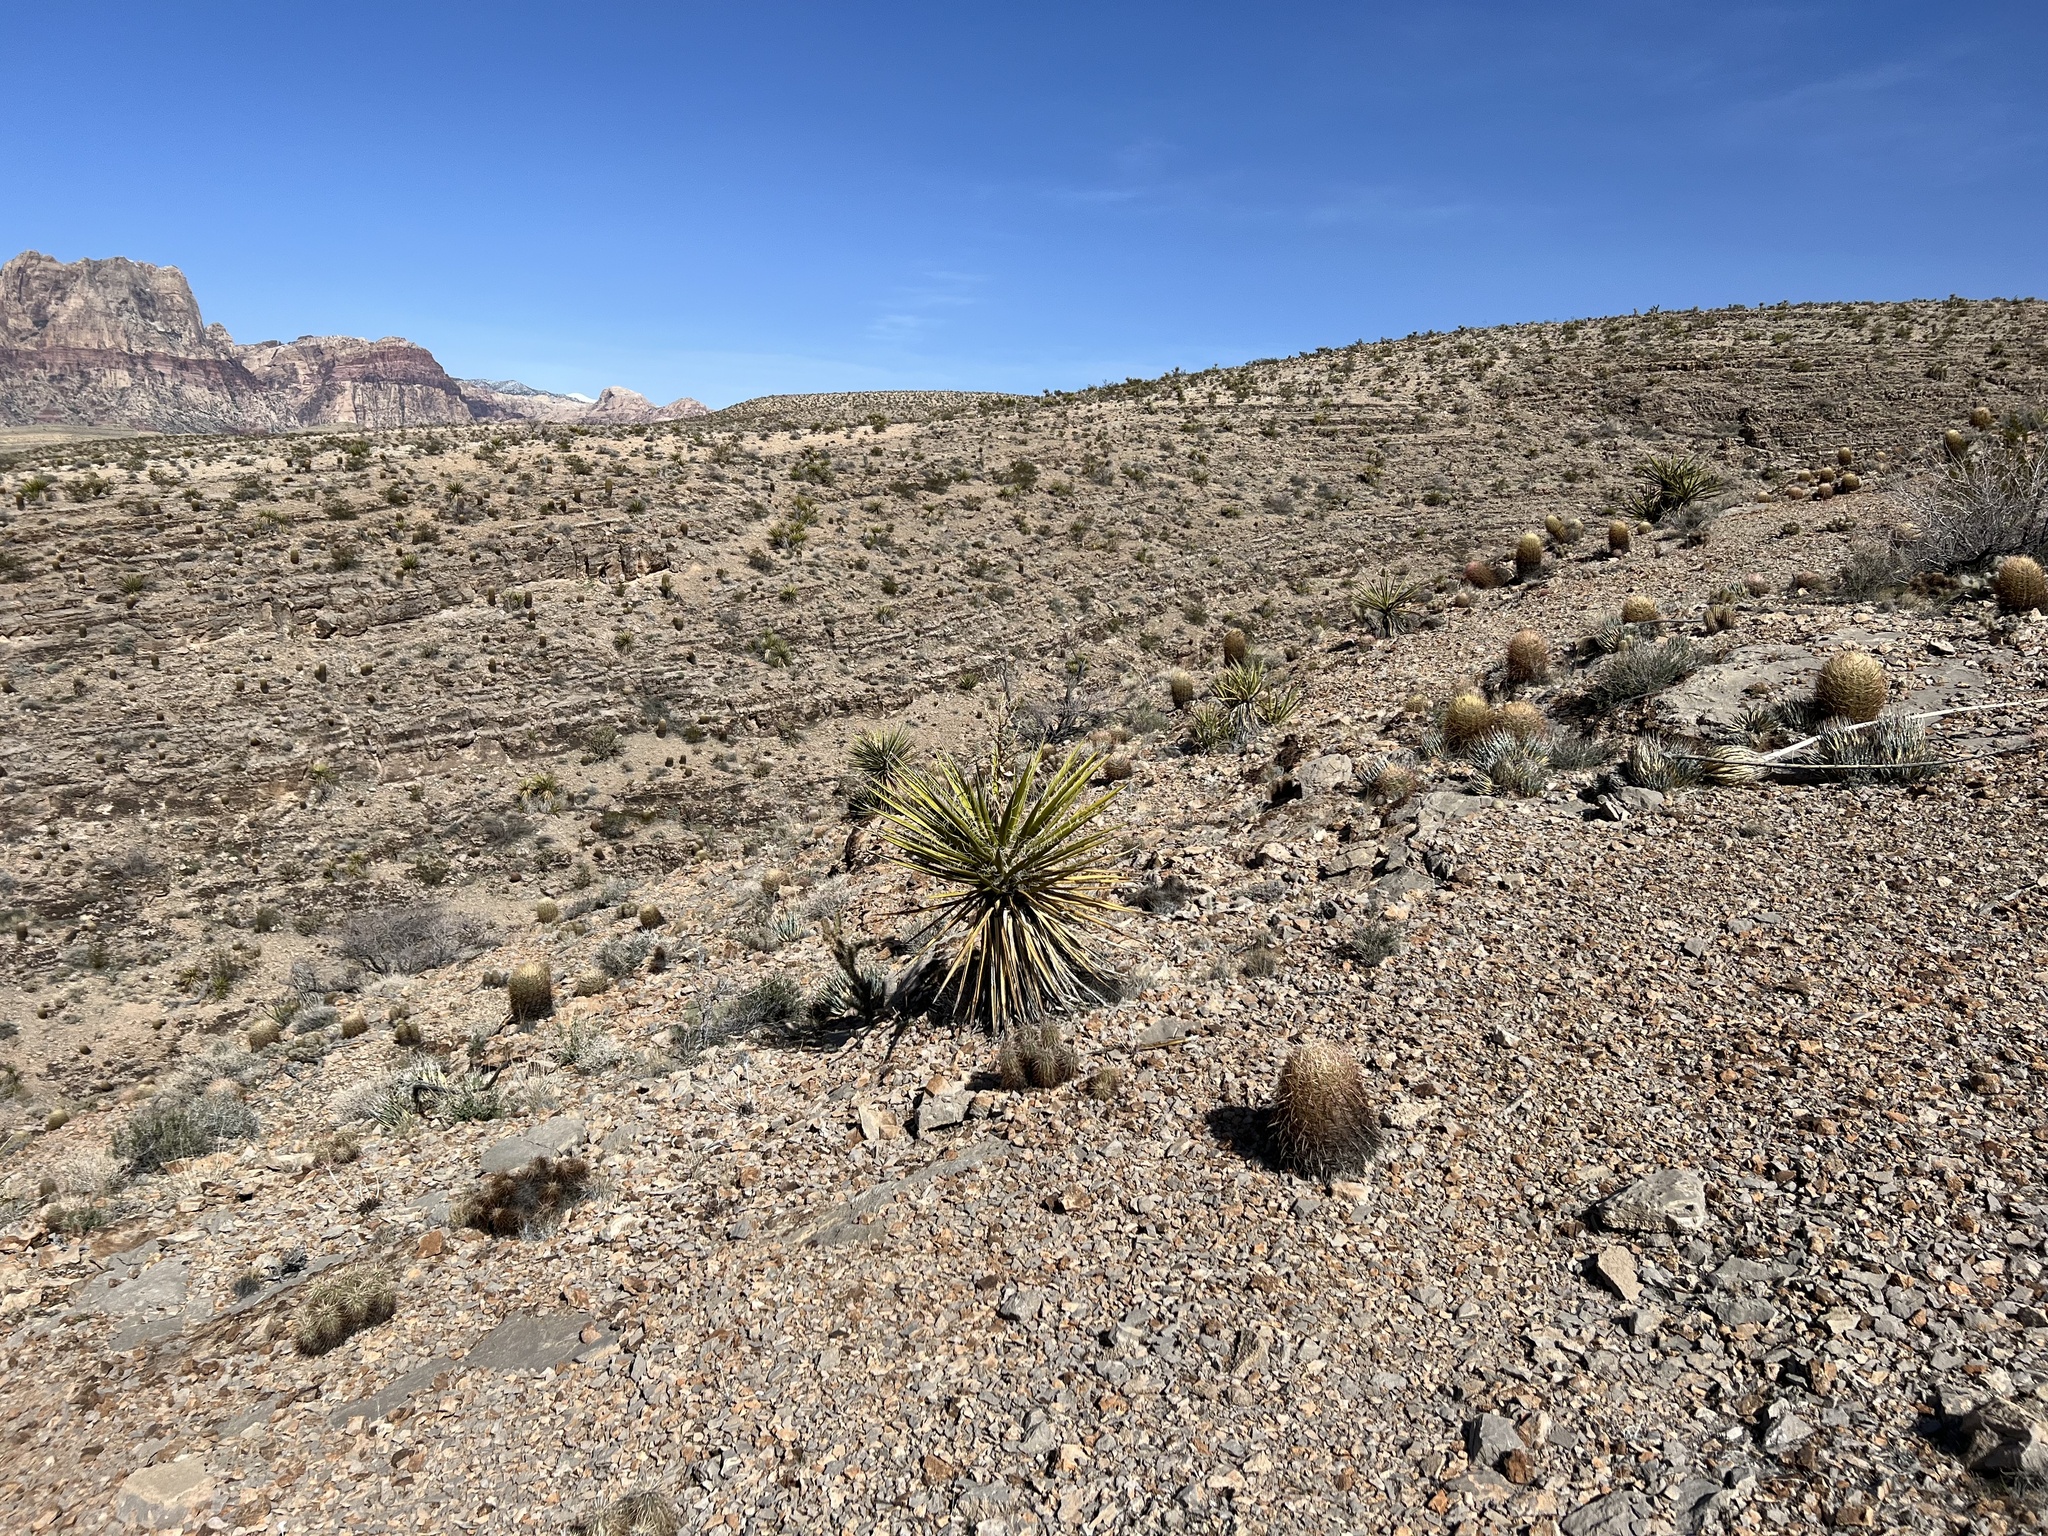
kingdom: Plantae
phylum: Tracheophyta
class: Liliopsida
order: Asparagales
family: Asparagaceae
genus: Yucca
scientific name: Yucca schidigera
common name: Mojave yucca
